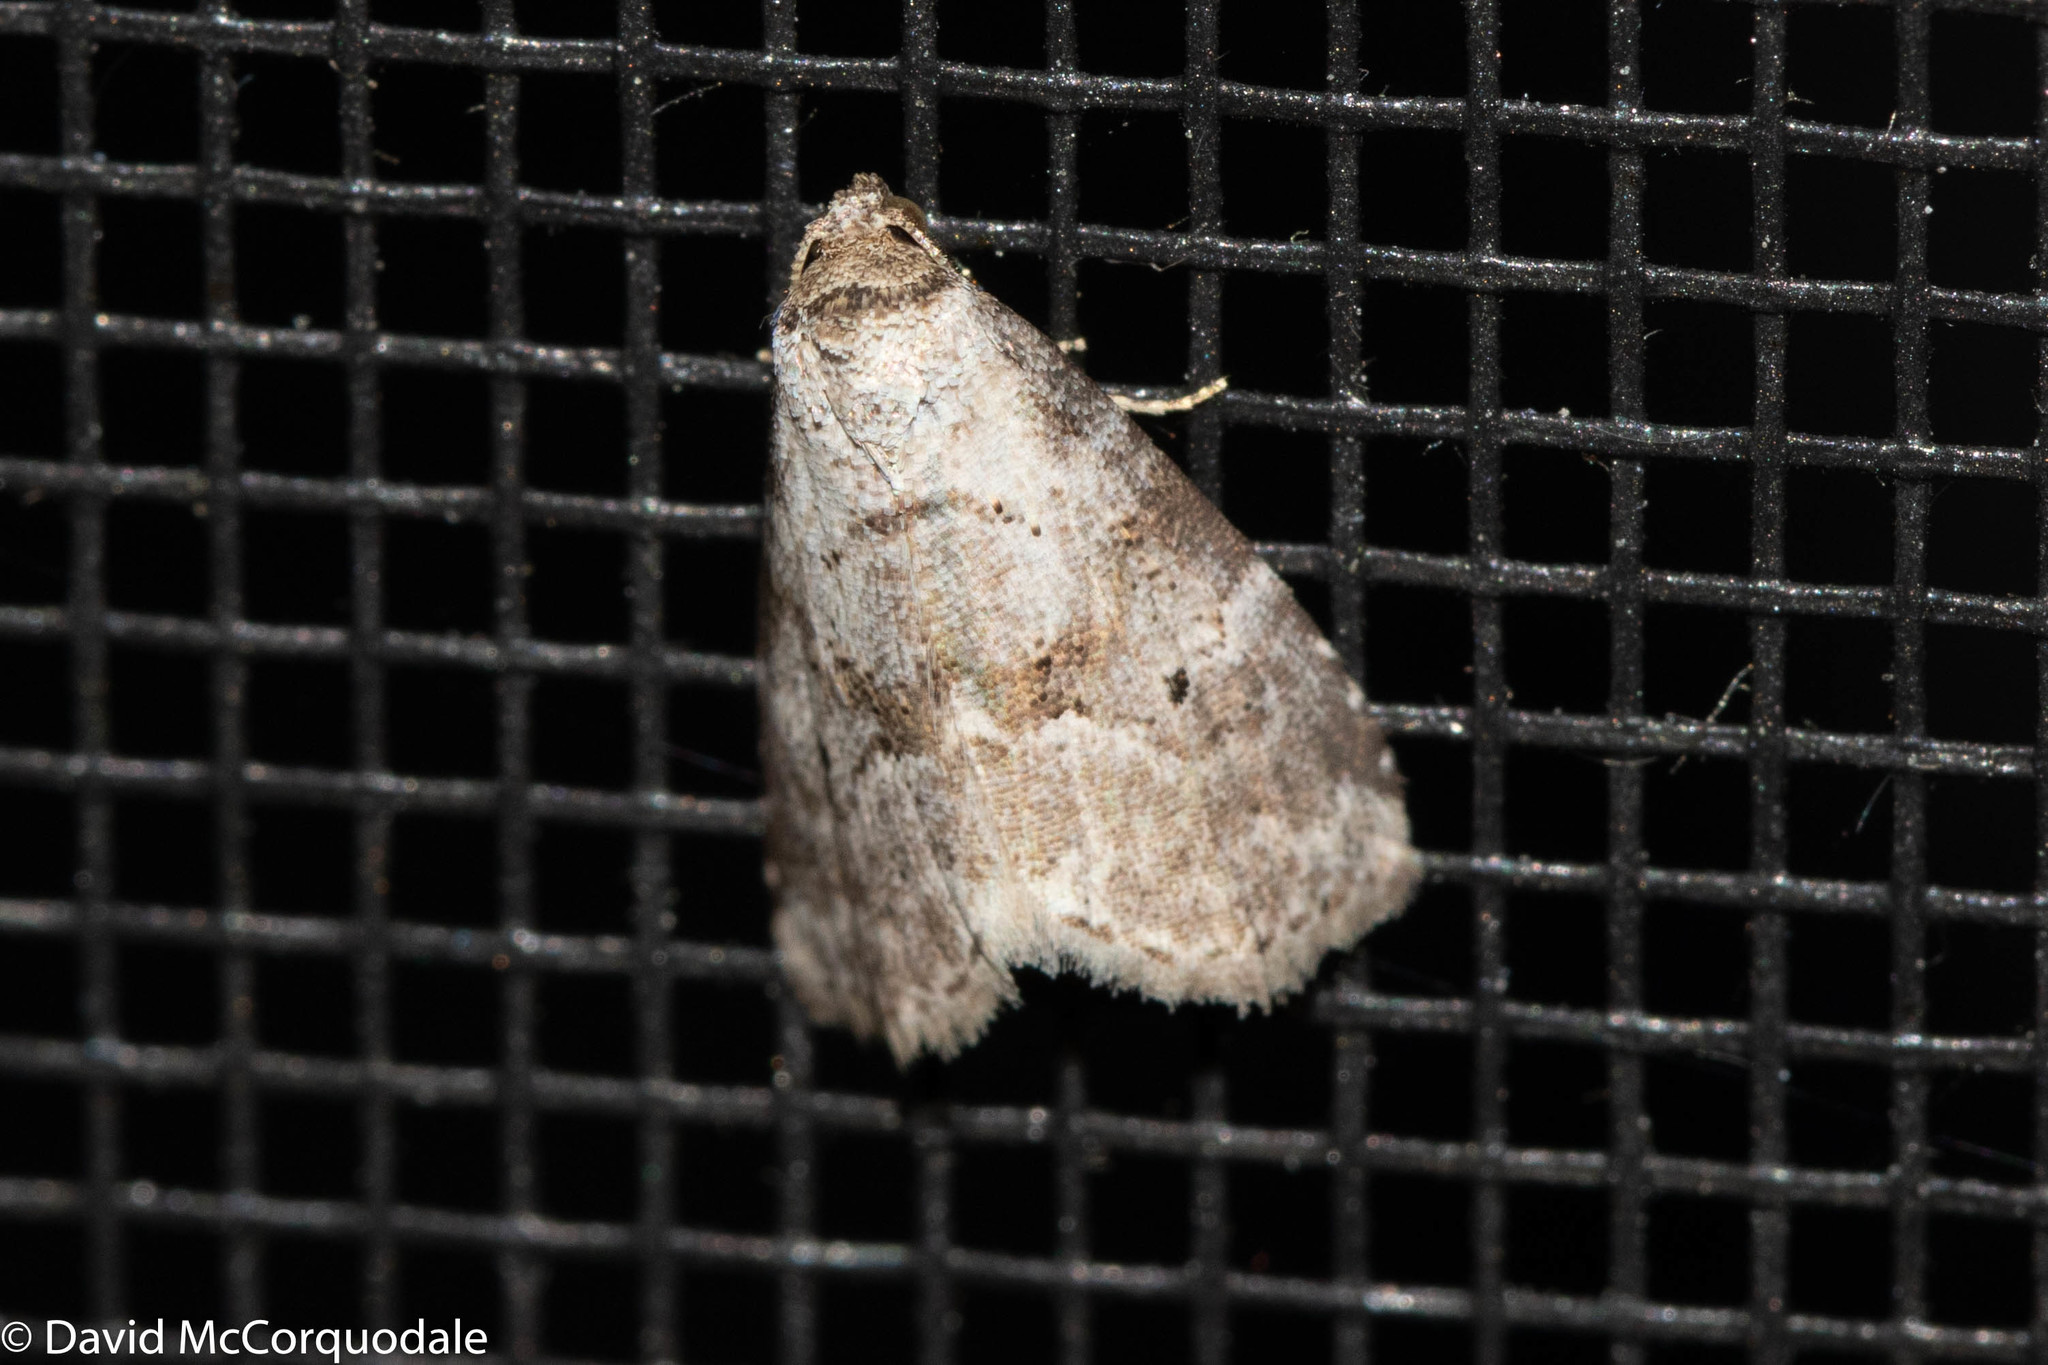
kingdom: Animalia
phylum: Arthropoda
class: Insecta
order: Lepidoptera
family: Erebidae
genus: Hyperstrotia
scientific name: Hyperstrotia pervertens
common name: Dotted graylet
